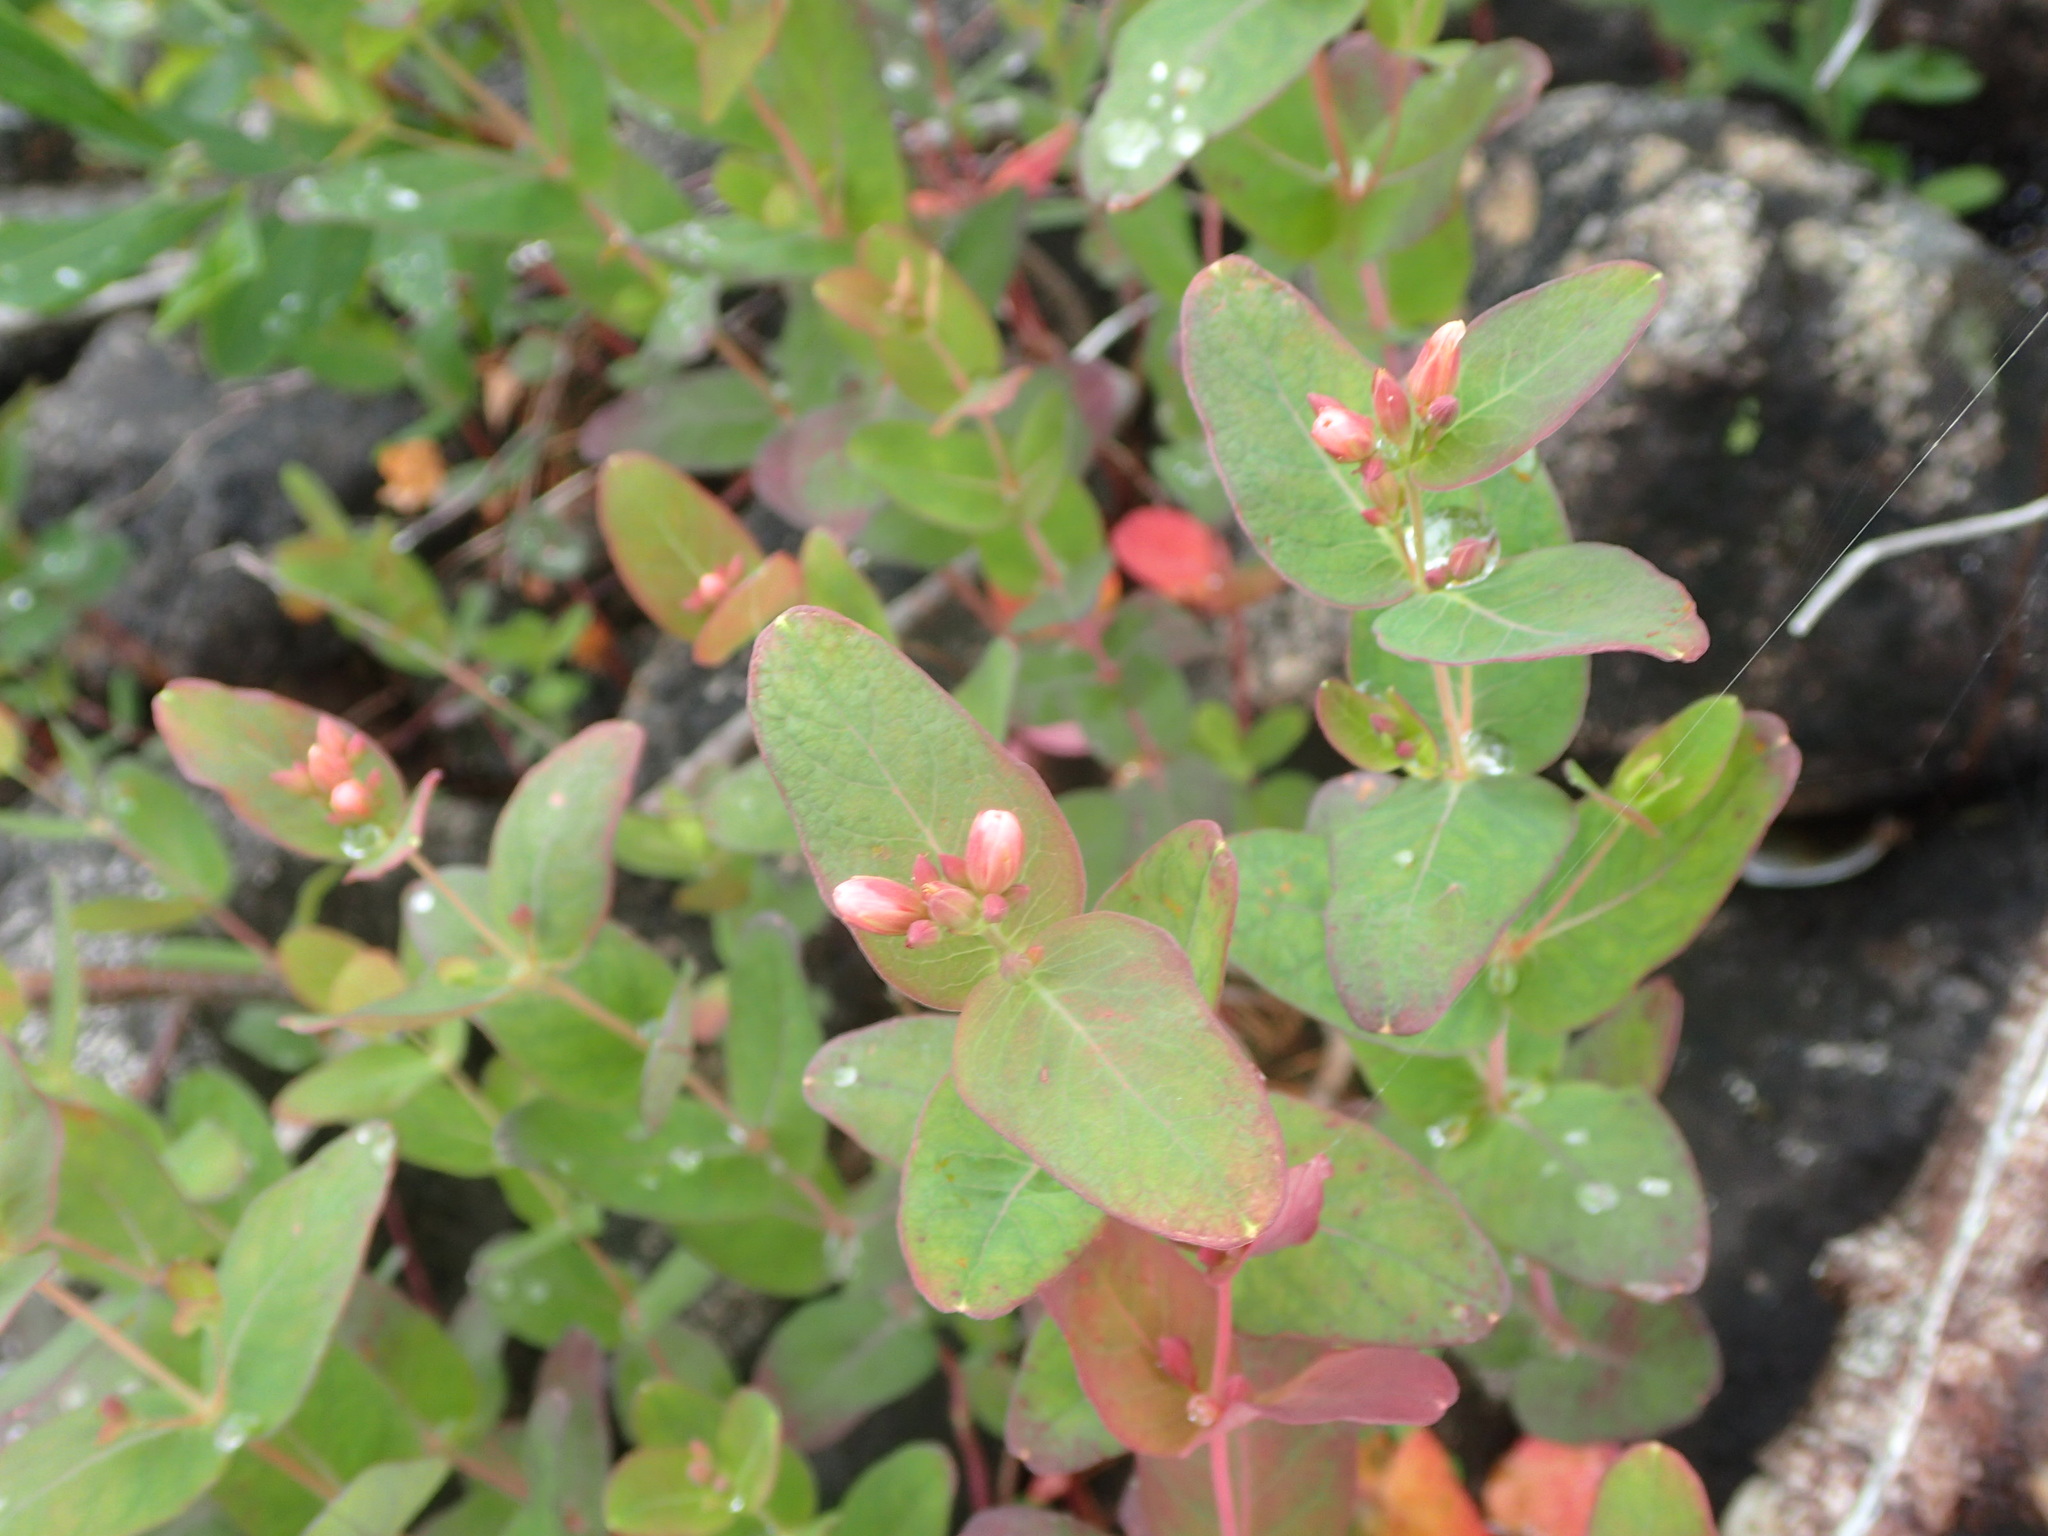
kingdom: Plantae
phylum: Tracheophyta
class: Magnoliopsida
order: Malpighiales
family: Hypericaceae
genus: Triadenum
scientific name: Triadenum virginicum
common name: Marsh st. john's-wort
